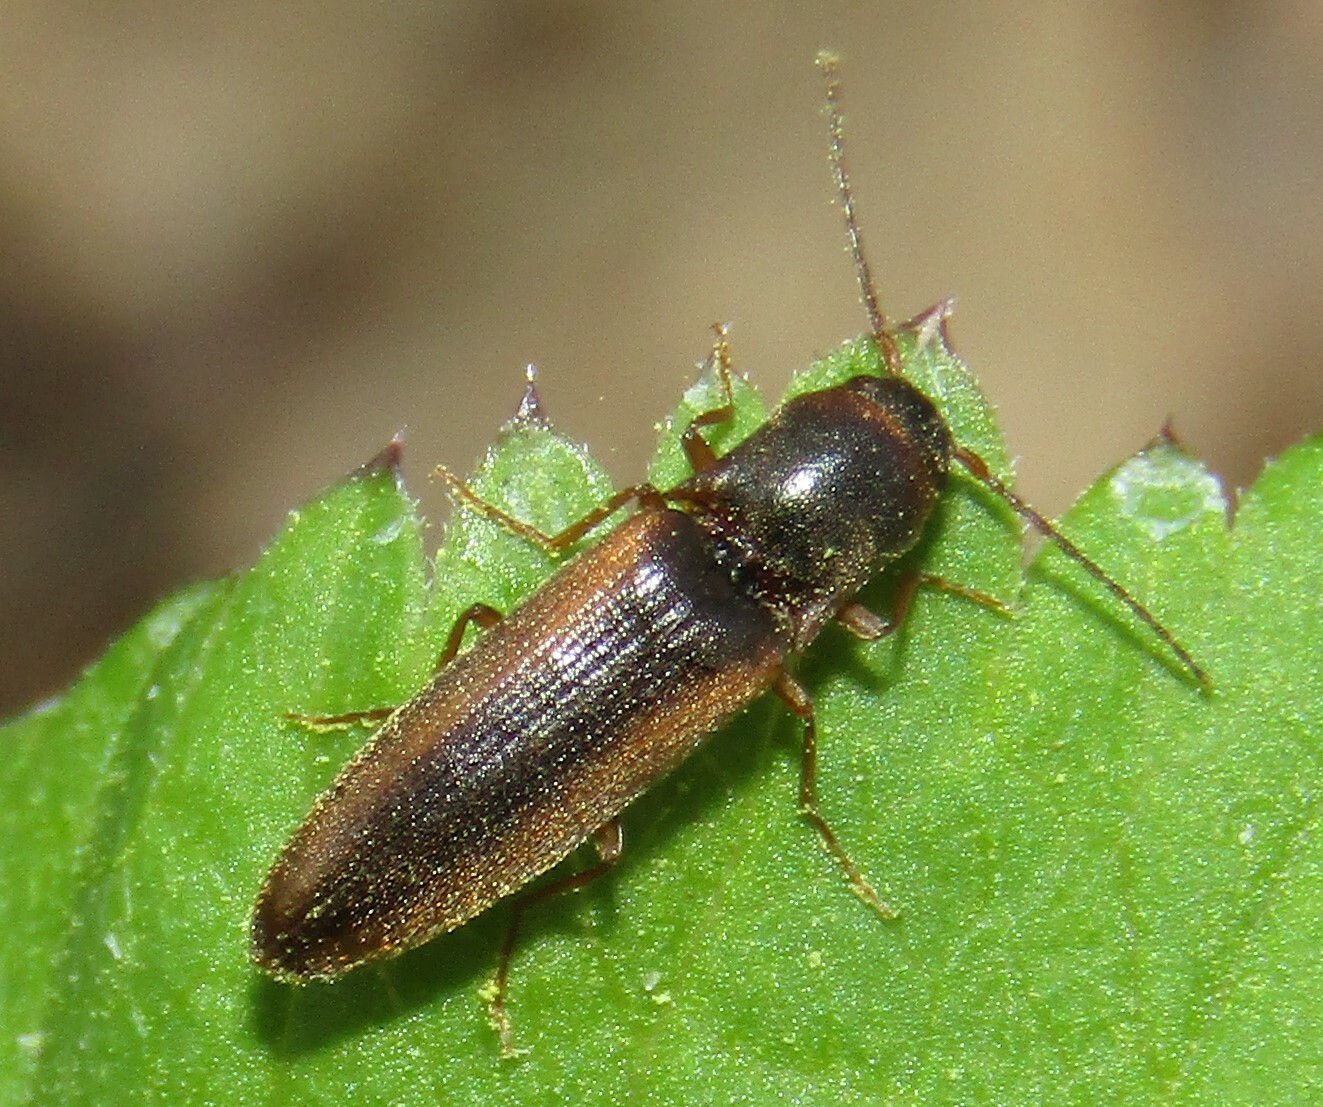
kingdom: Animalia
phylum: Arthropoda
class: Insecta
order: Coleoptera
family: Elateridae
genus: Dalopius
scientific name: Dalopius marginatus
